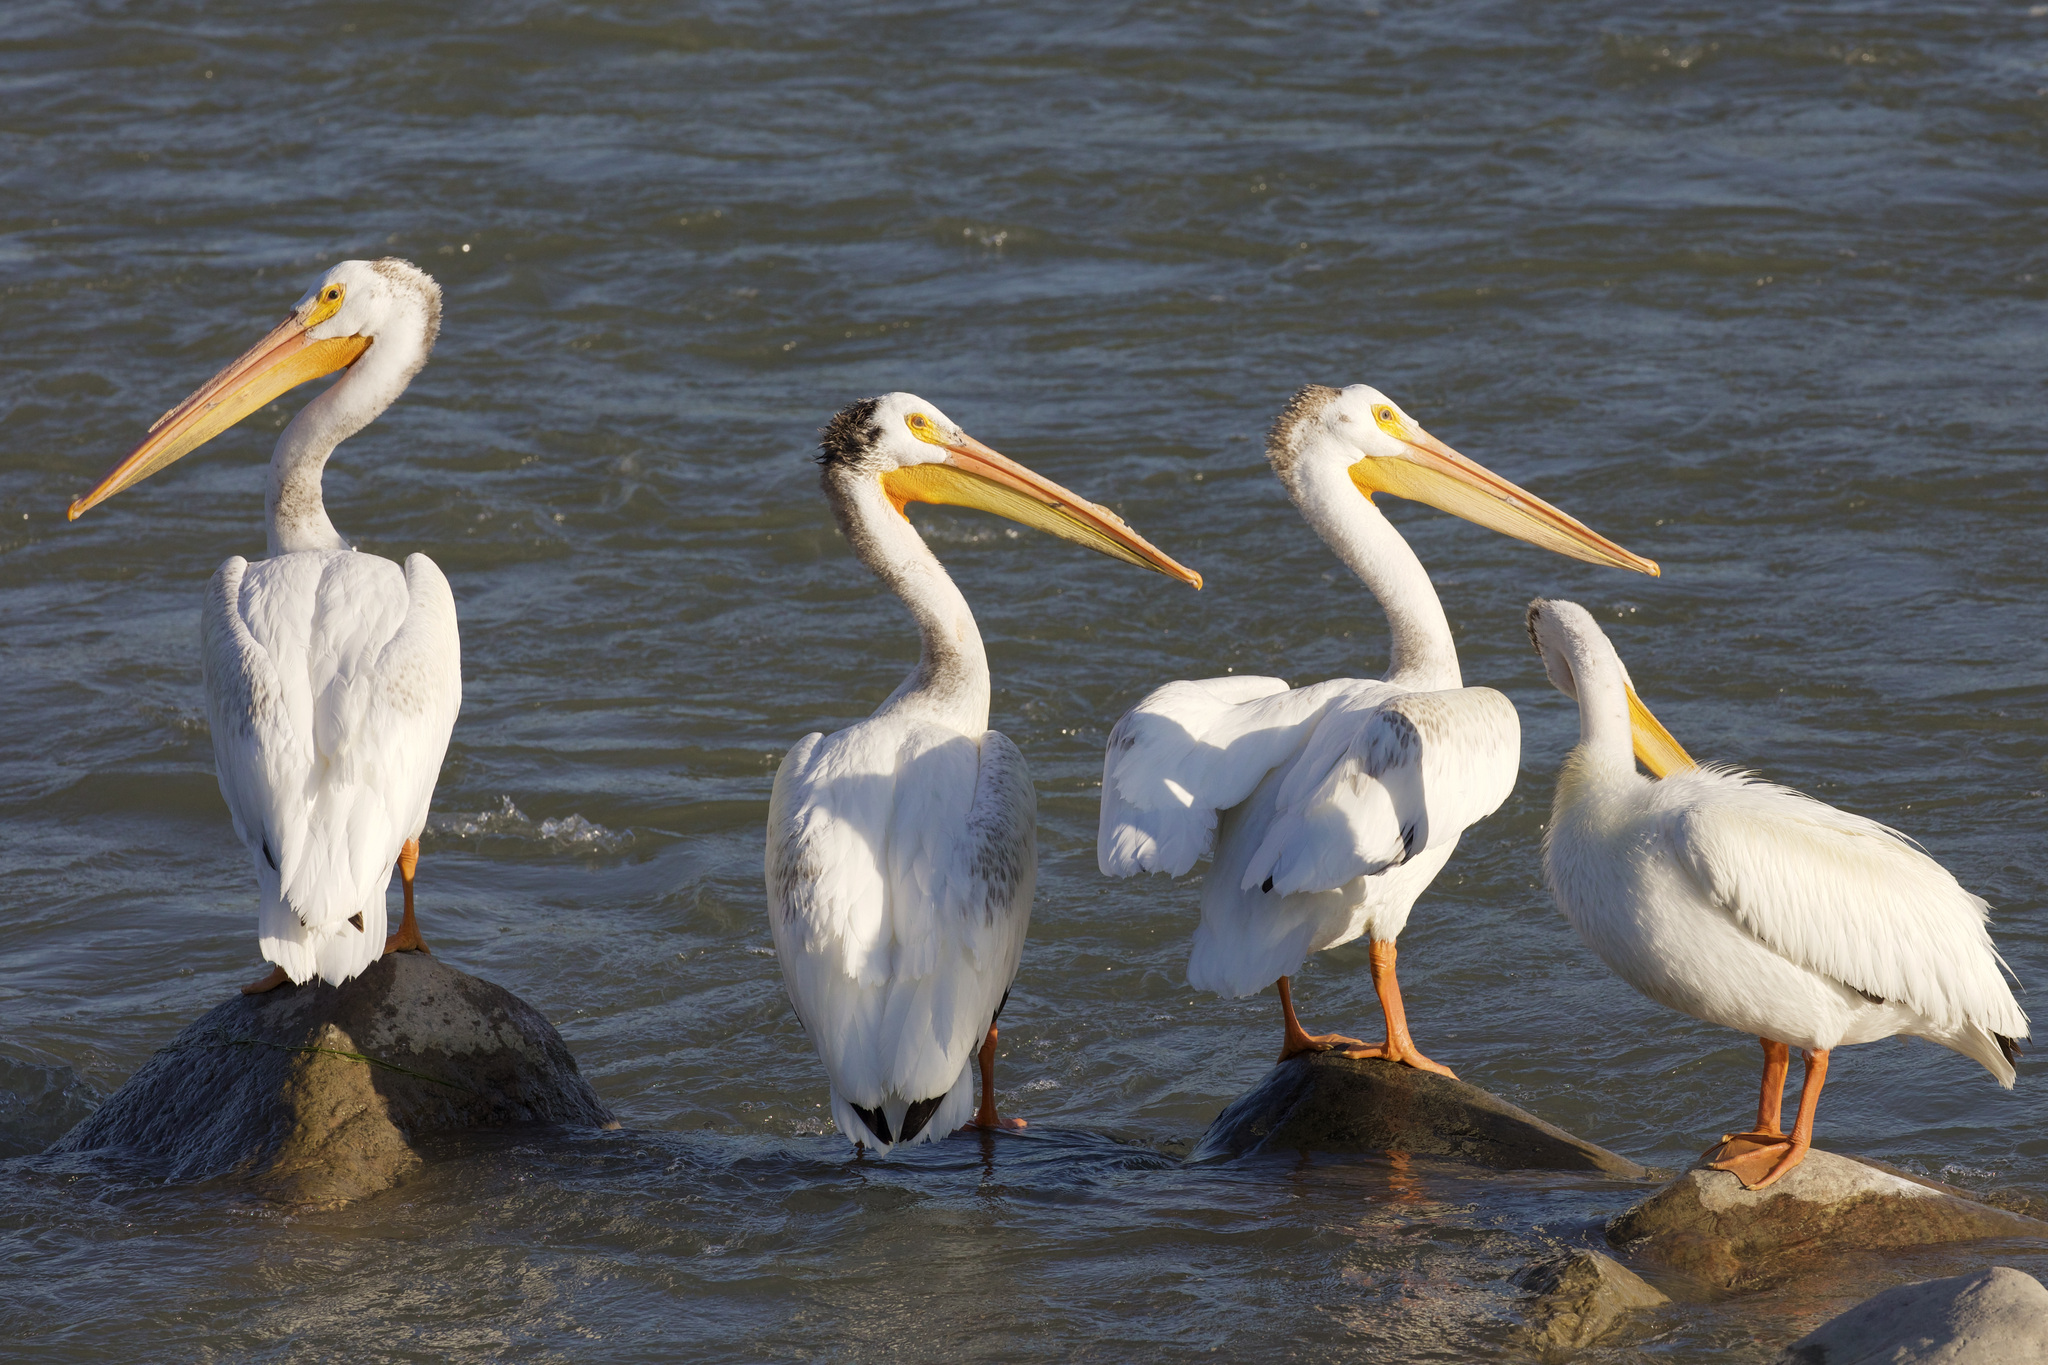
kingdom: Animalia
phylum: Chordata
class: Aves
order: Pelecaniformes
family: Pelecanidae
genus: Pelecanus
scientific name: Pelecanus erythrorhynchos
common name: American white pelican
